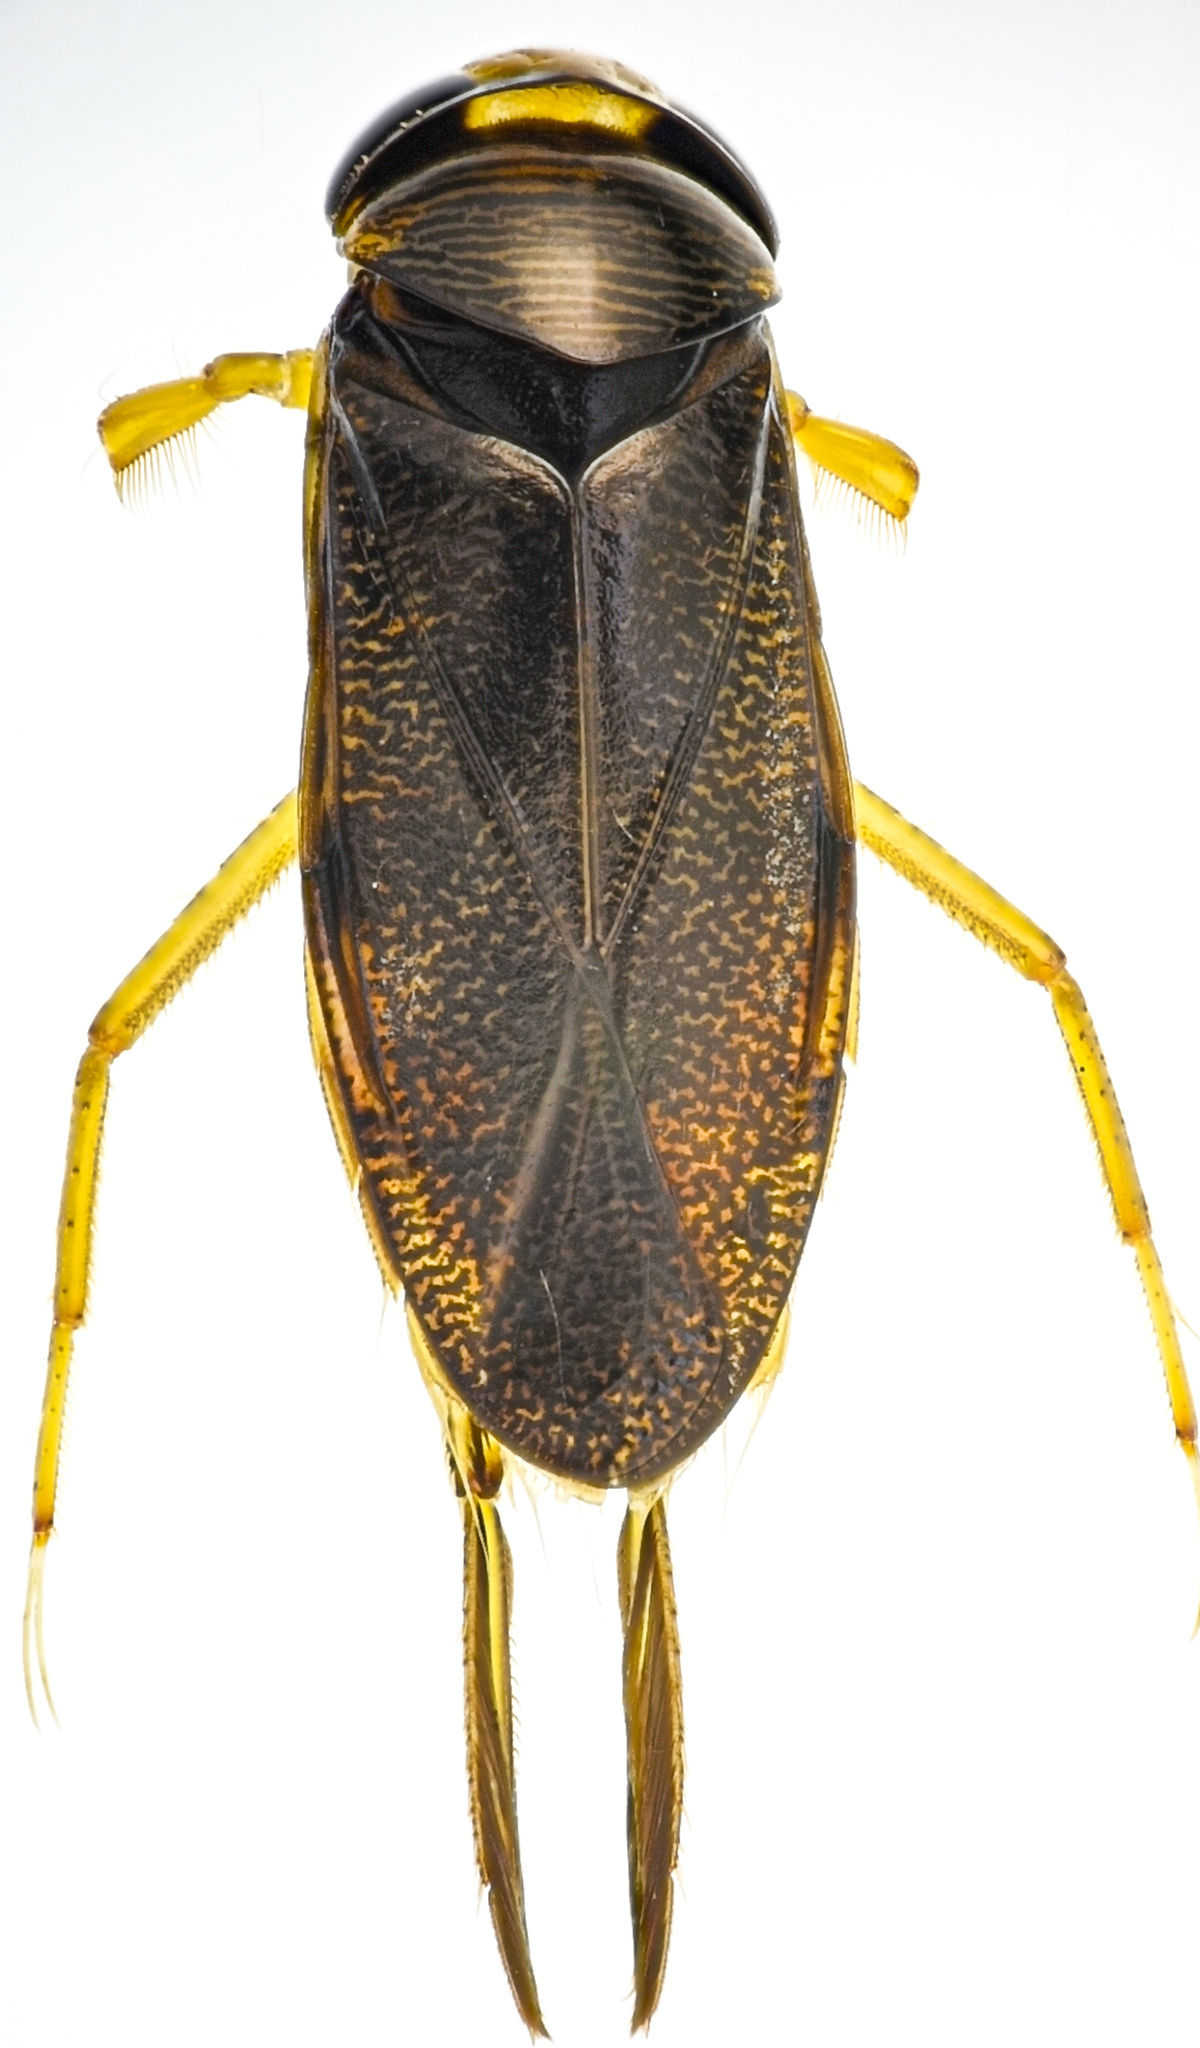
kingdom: Animalia
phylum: Arthropoda
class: Insecta
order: Hemiptera
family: Corixidae
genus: Hesperocorixa
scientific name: Hesperocorixa laevigata
